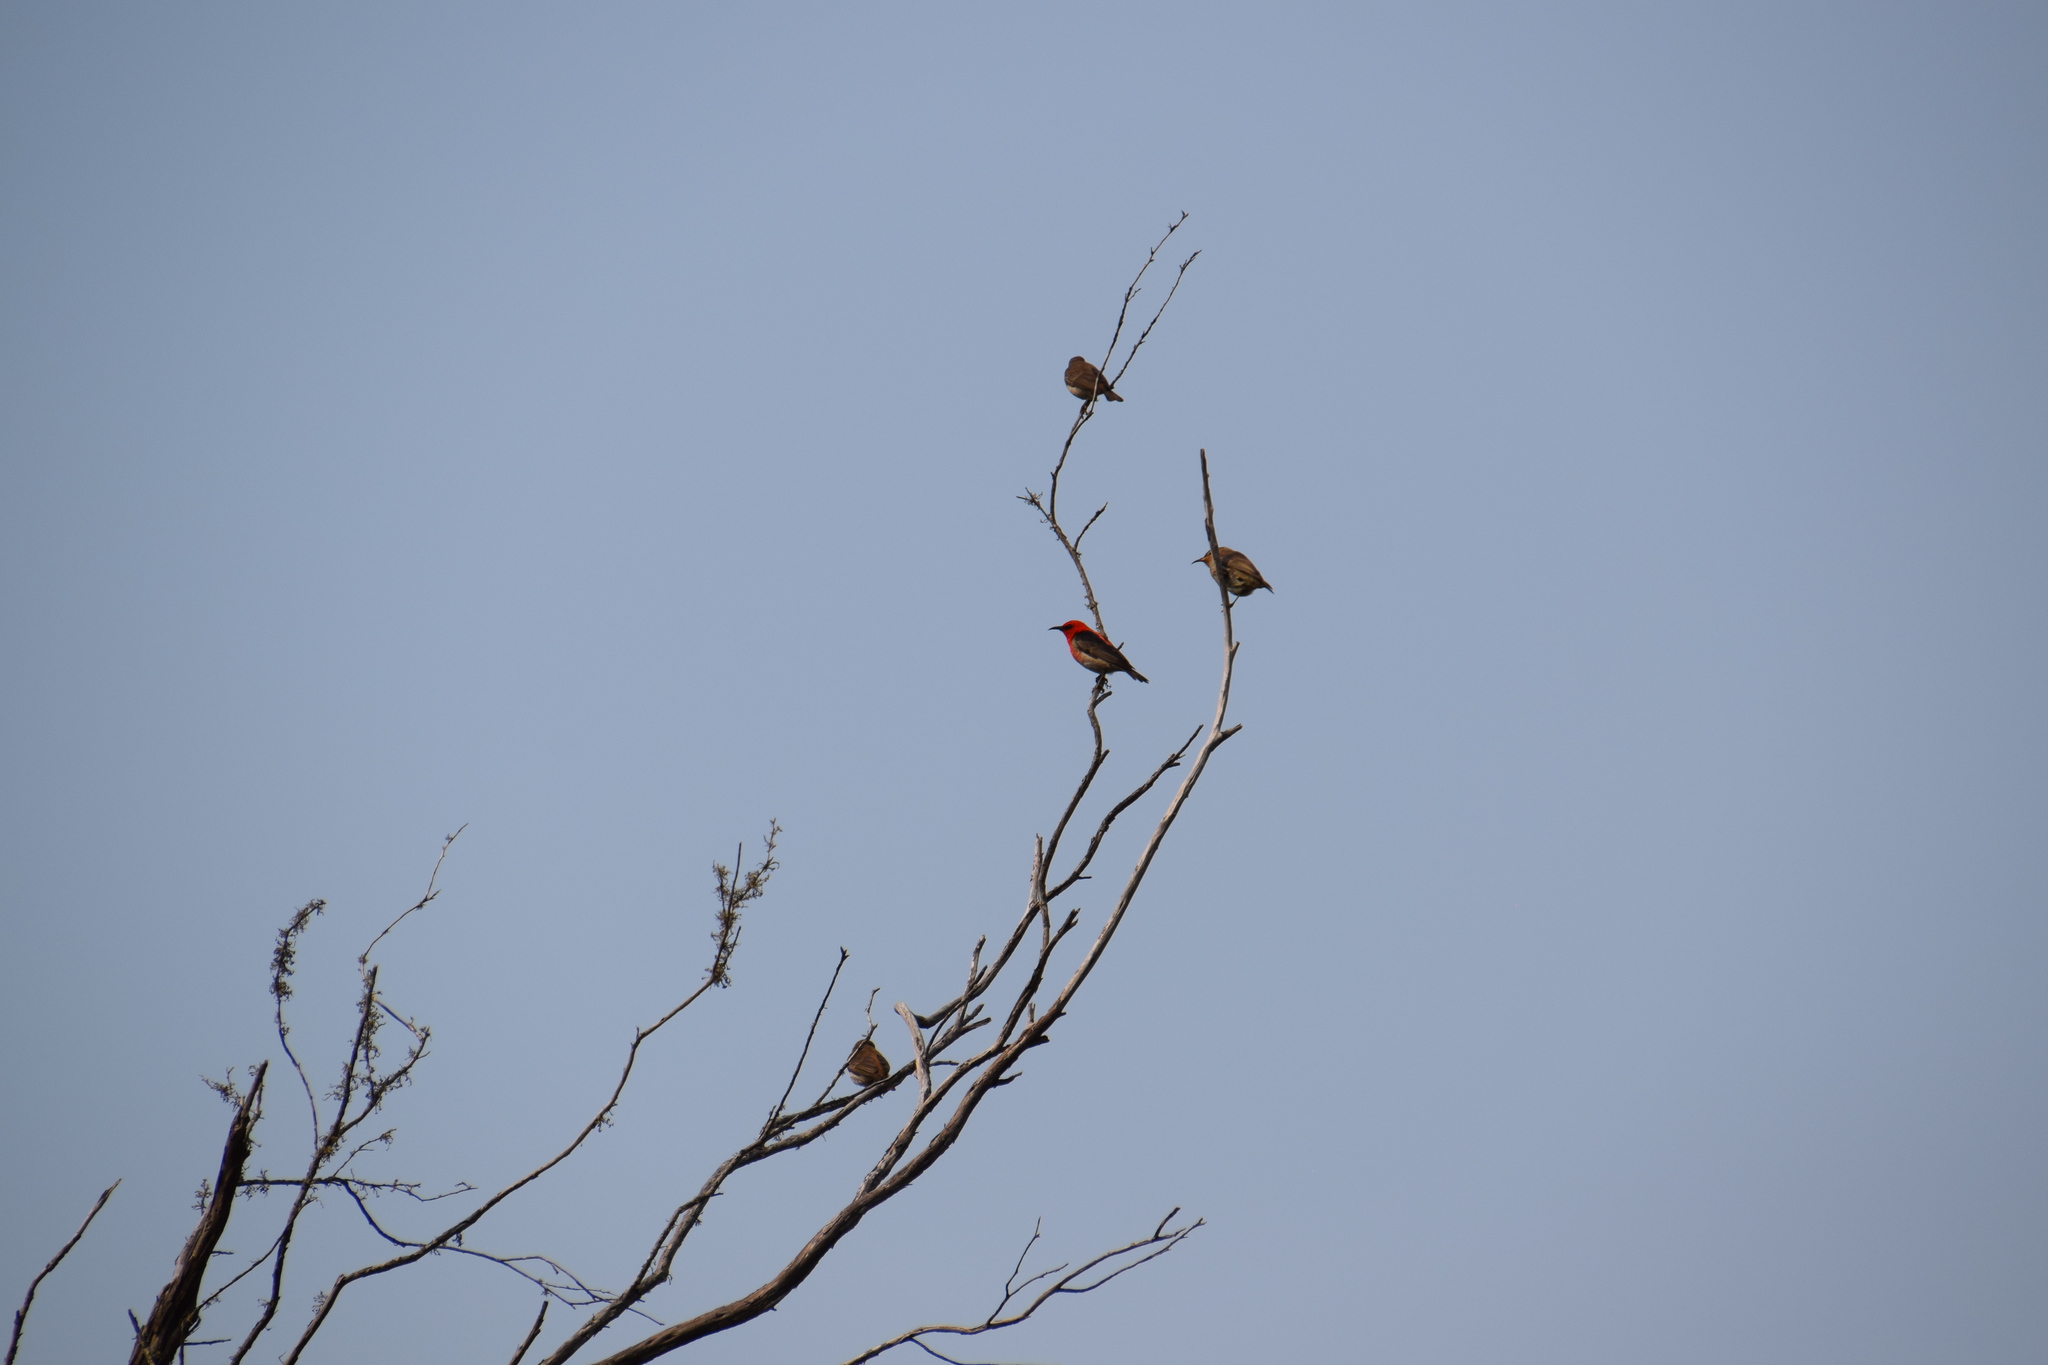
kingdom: Animalia
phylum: Chordata
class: Aves
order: Passeriformes
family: Meliphagidae
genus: Myzomela
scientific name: Myzomela sanguinolenta
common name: Scarlet myzomela
